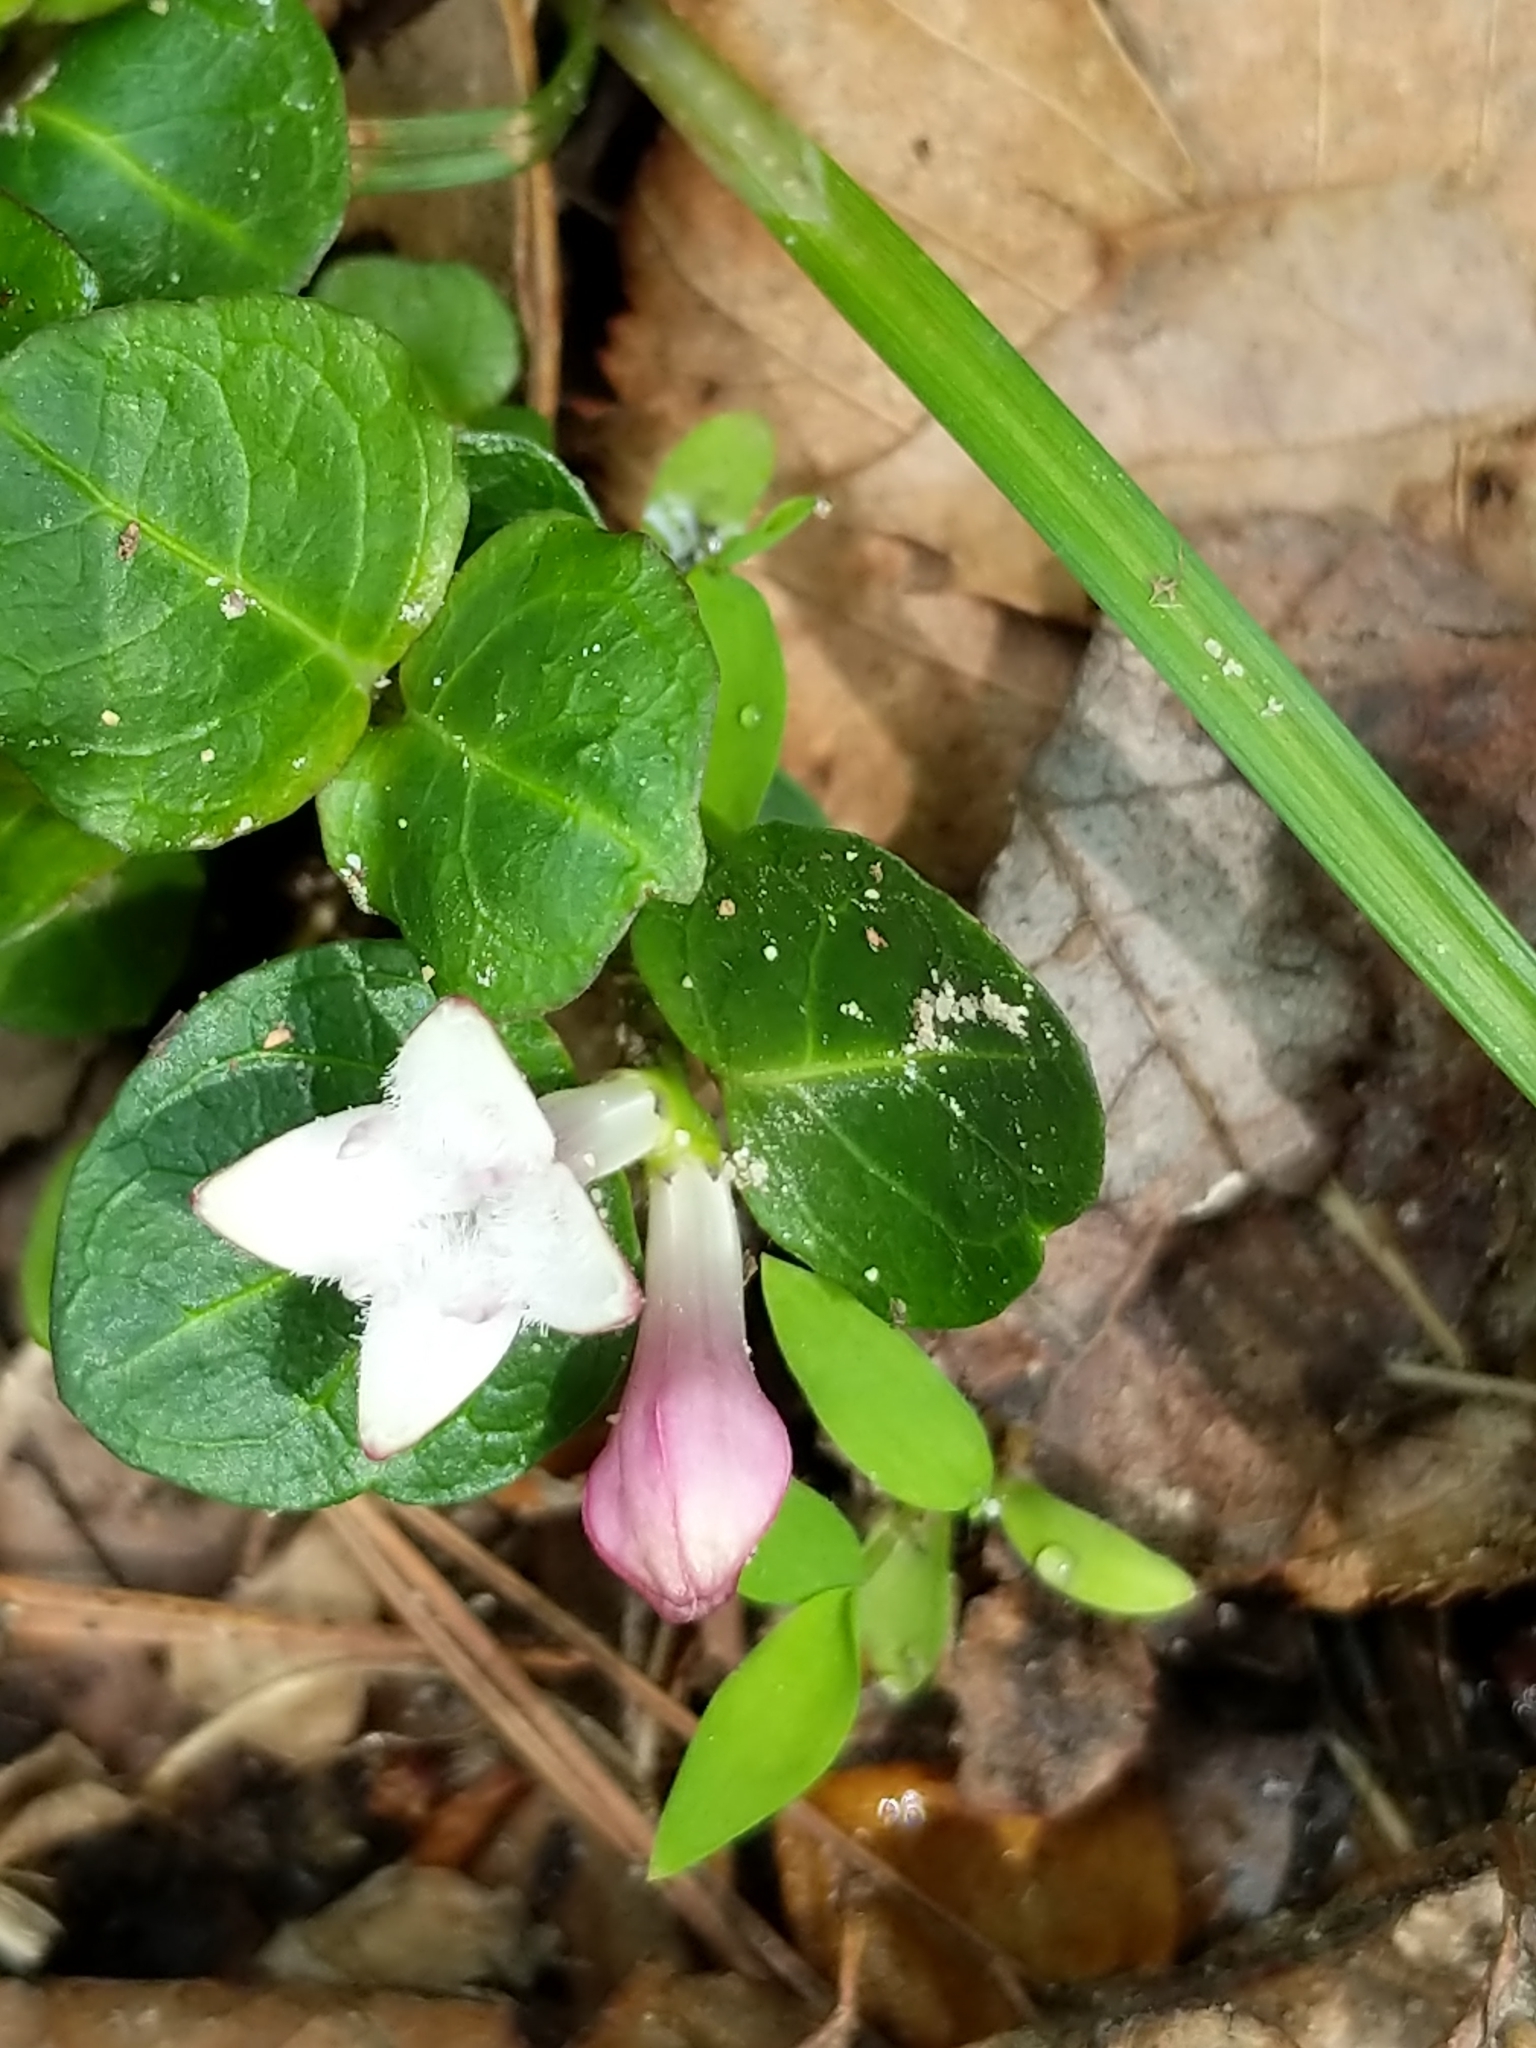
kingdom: Plantae
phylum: Tracheophyta
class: Magnoliopsida
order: Gentianales
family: Rubiaceae
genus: Mitchella
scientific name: Mitchella repens
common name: Partridge-berry
